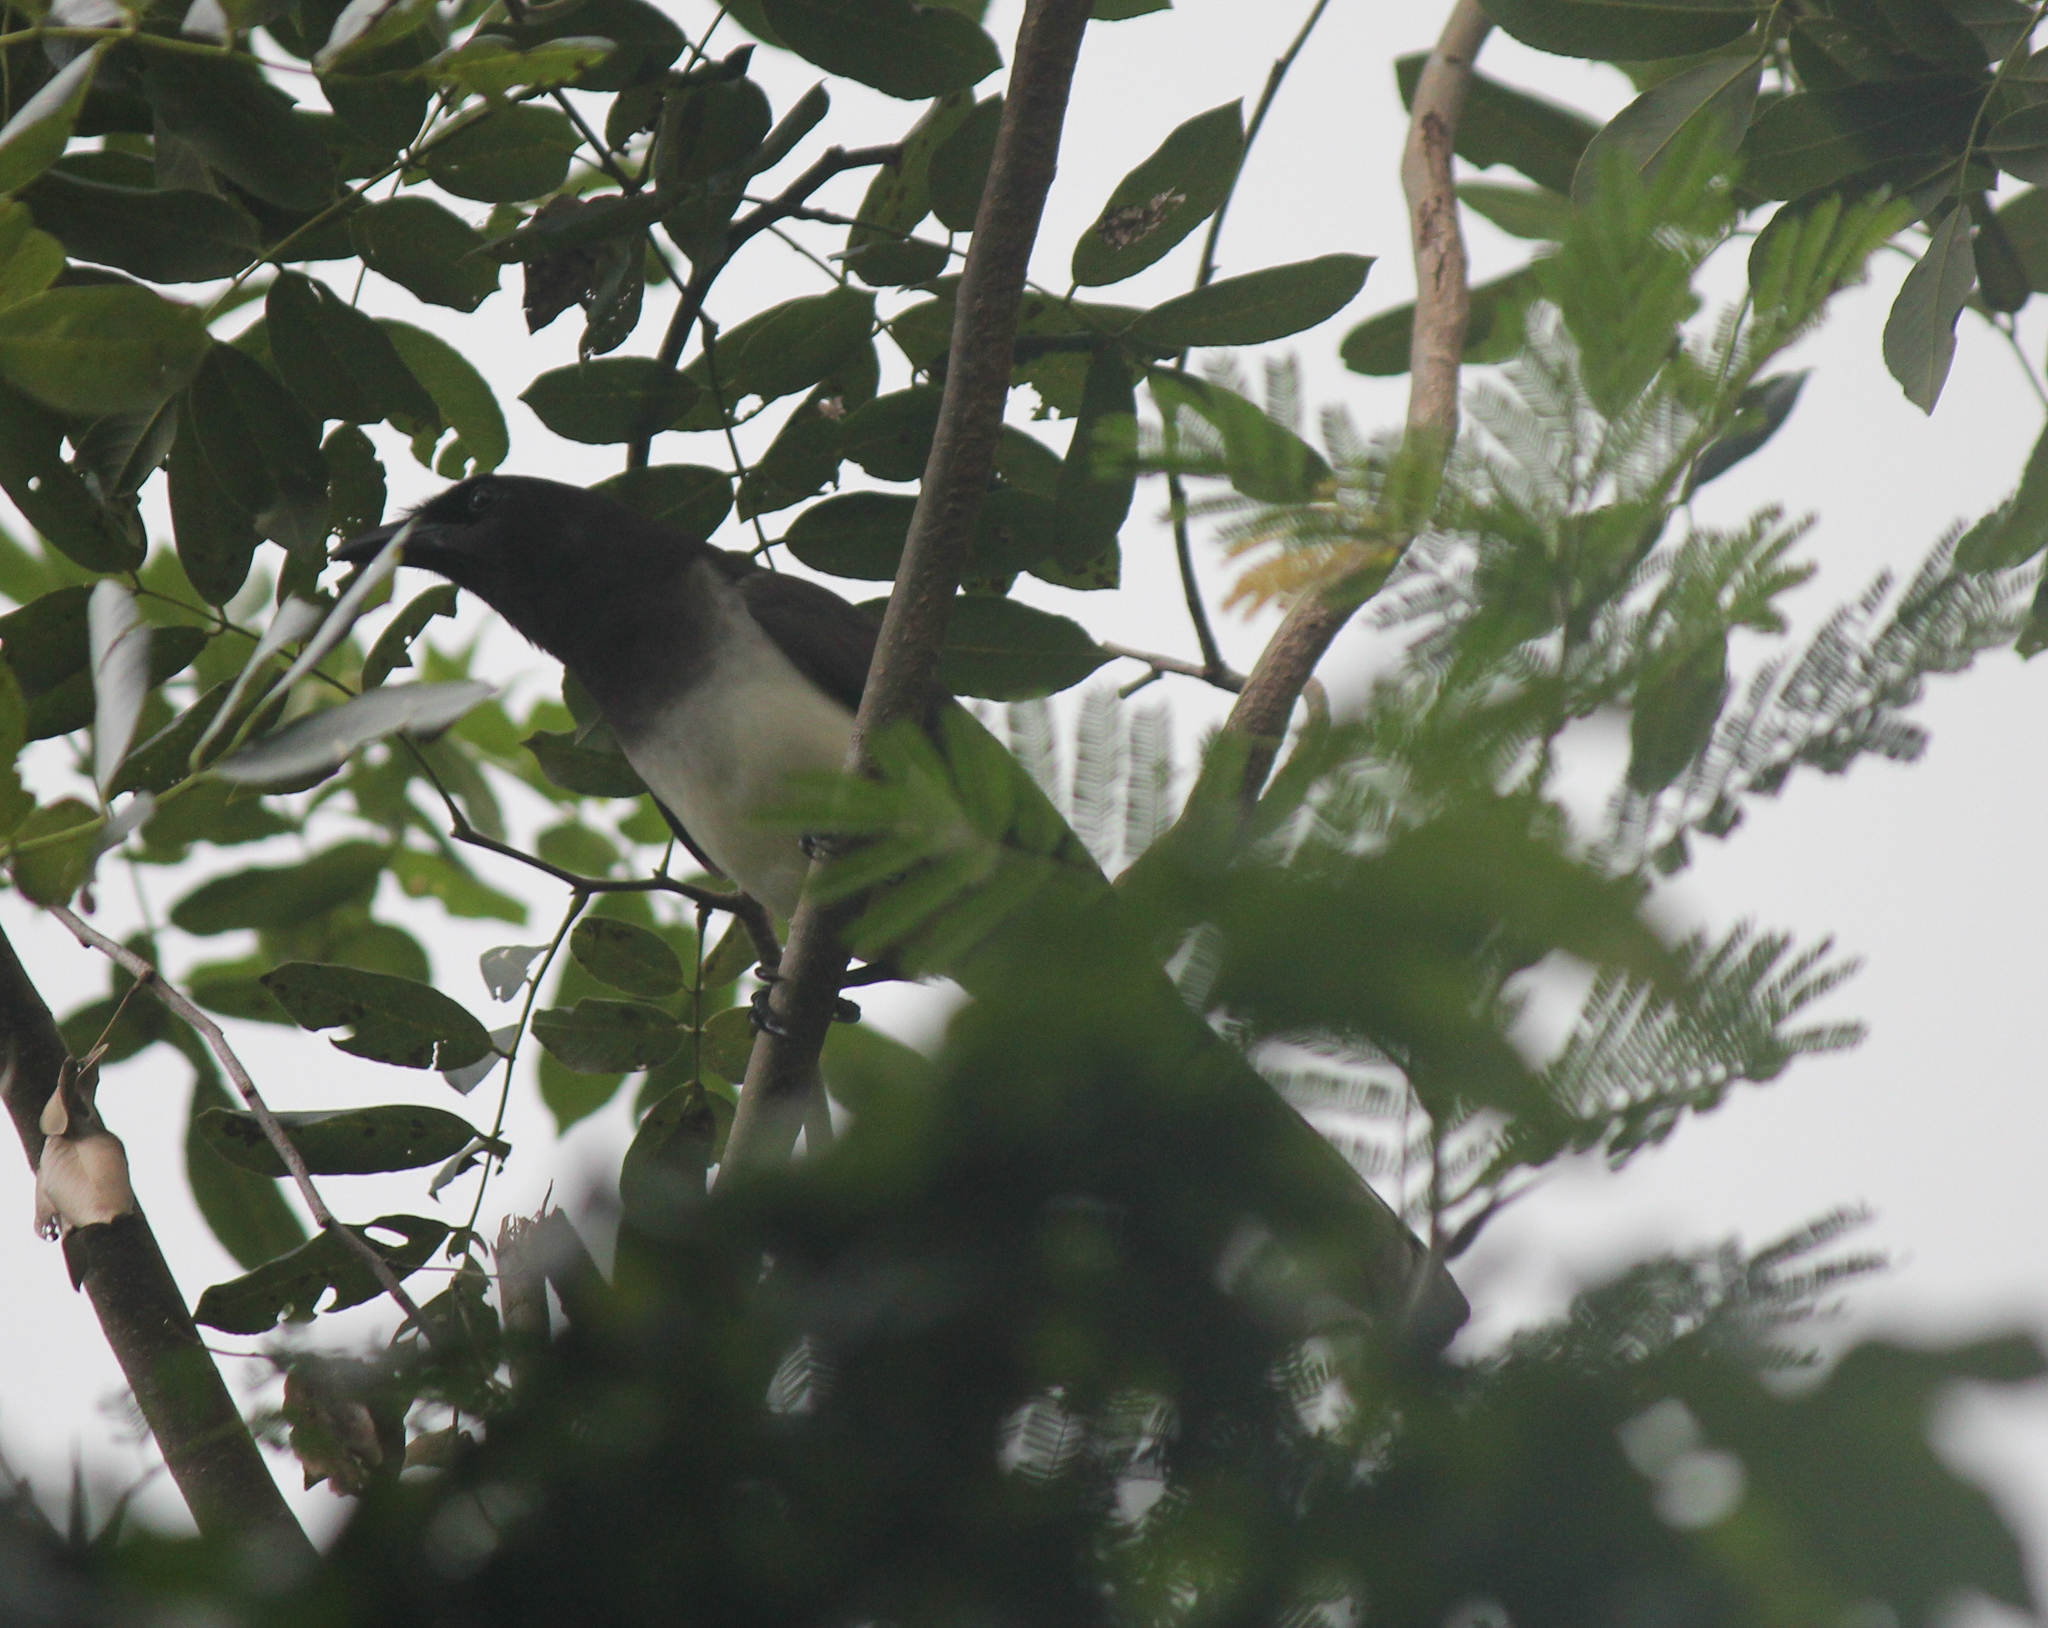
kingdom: Animalia
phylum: Chordata
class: Aves
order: Passeriformes
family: Corvidae
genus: Psilorhinus
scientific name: Psilorhinus morio
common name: Brown jay
